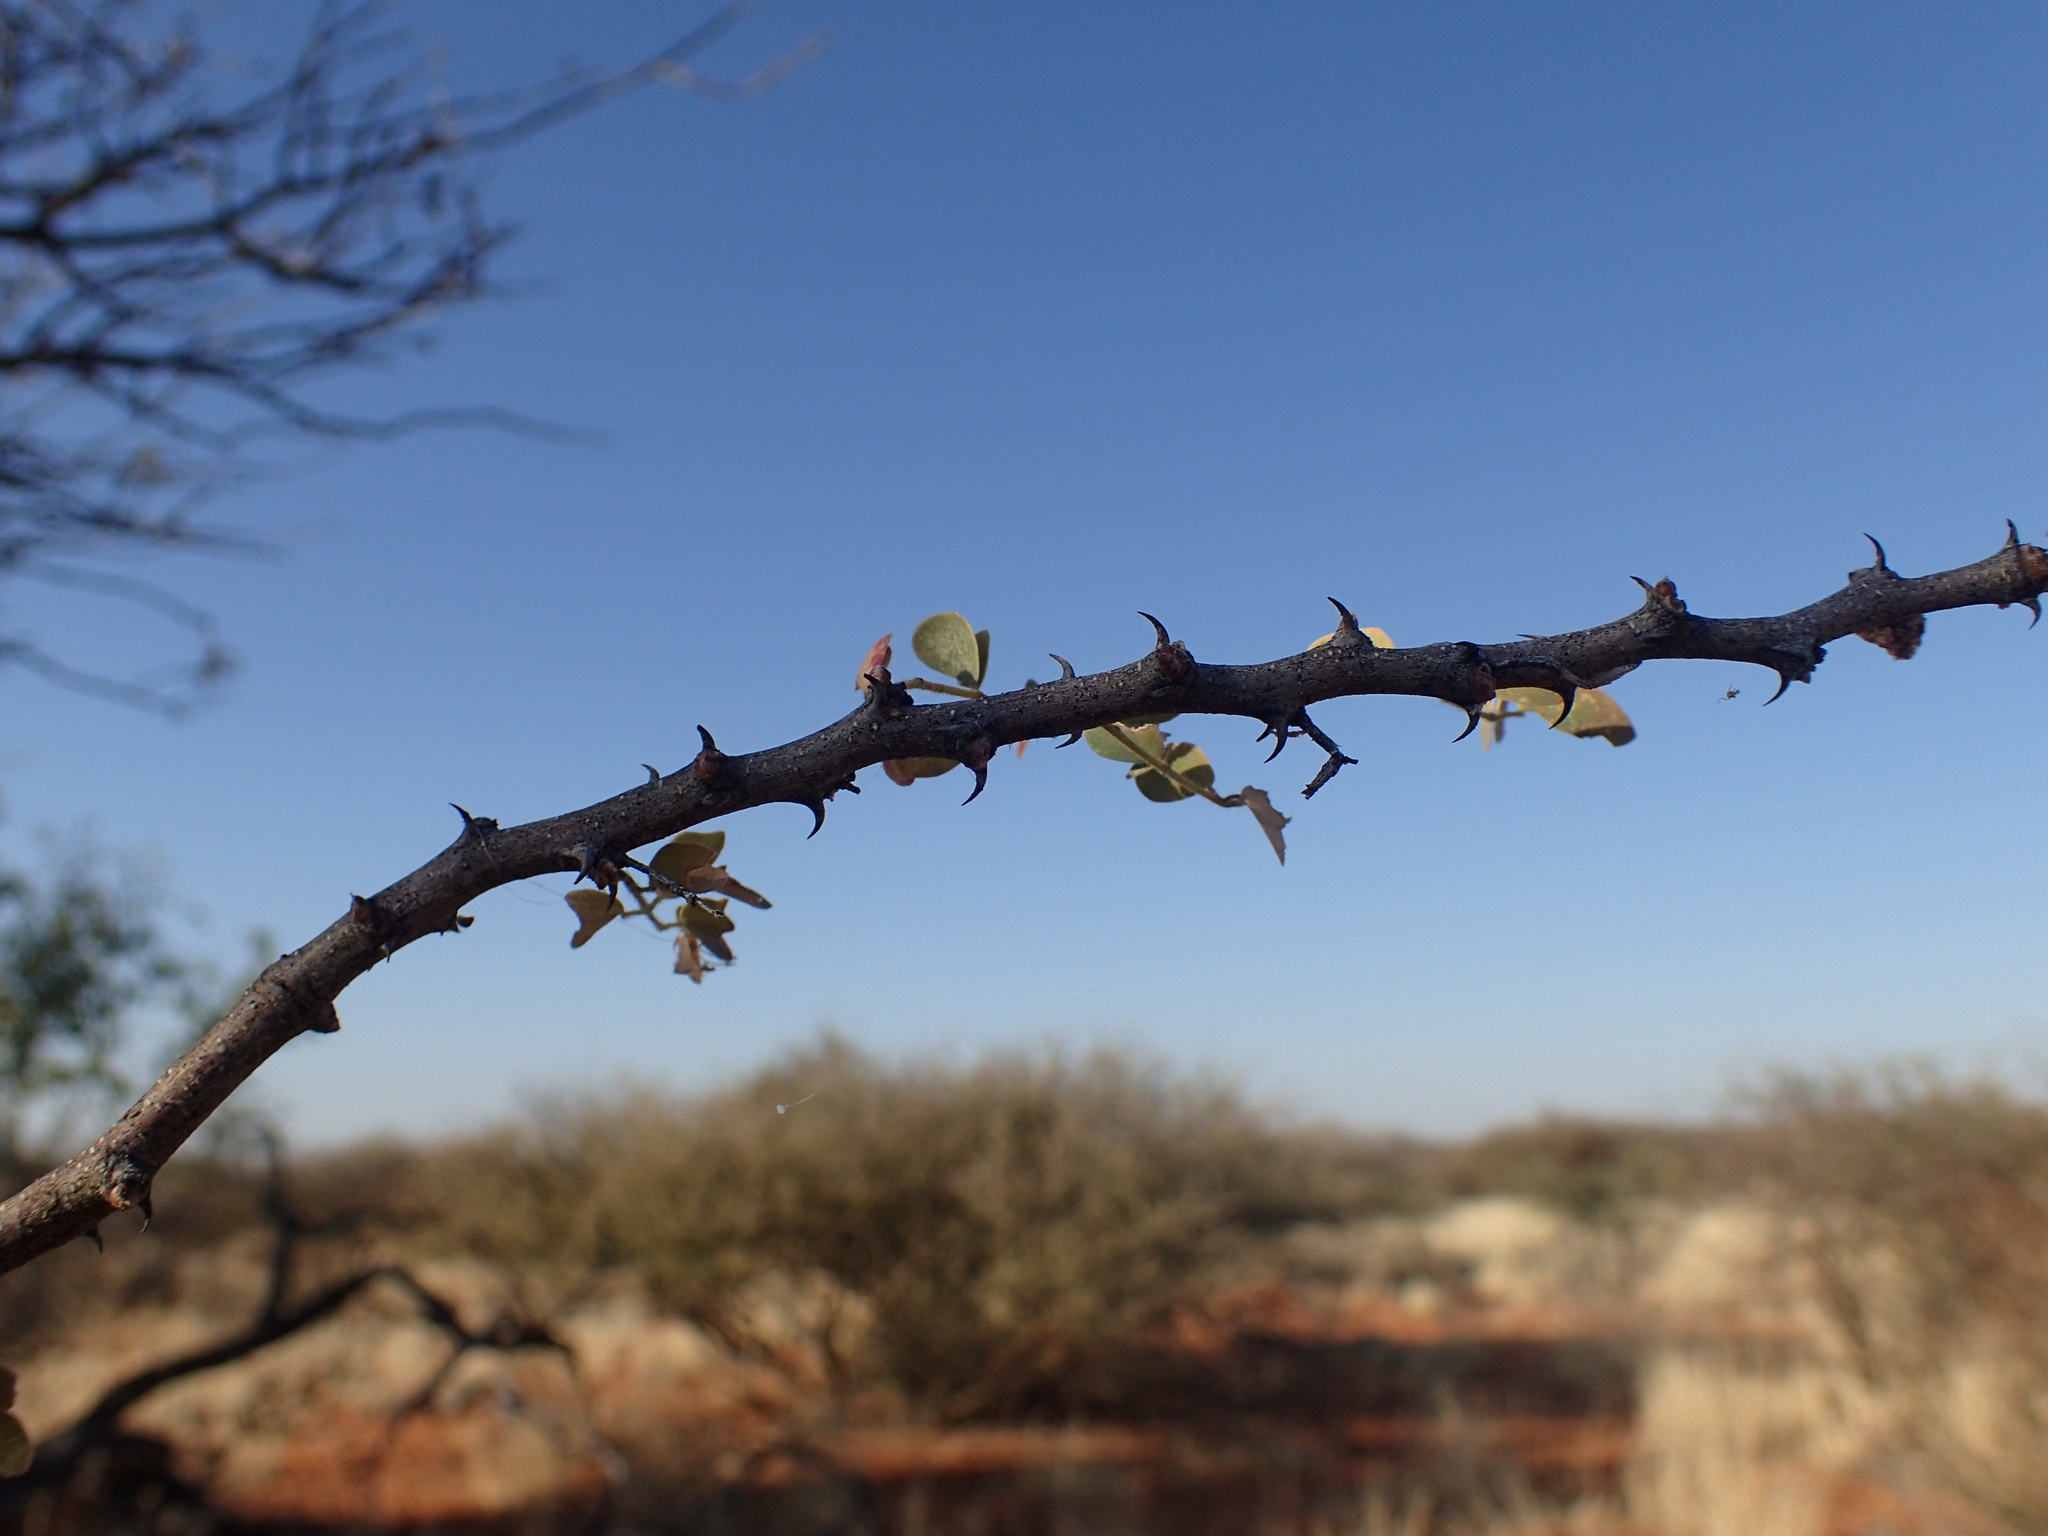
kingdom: Plantae
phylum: Tracheophyta
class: Magnoliopsida
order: Fabales
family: Fabaceae
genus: Senegalia
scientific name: Senegalia mellifera
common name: Hookthorn
